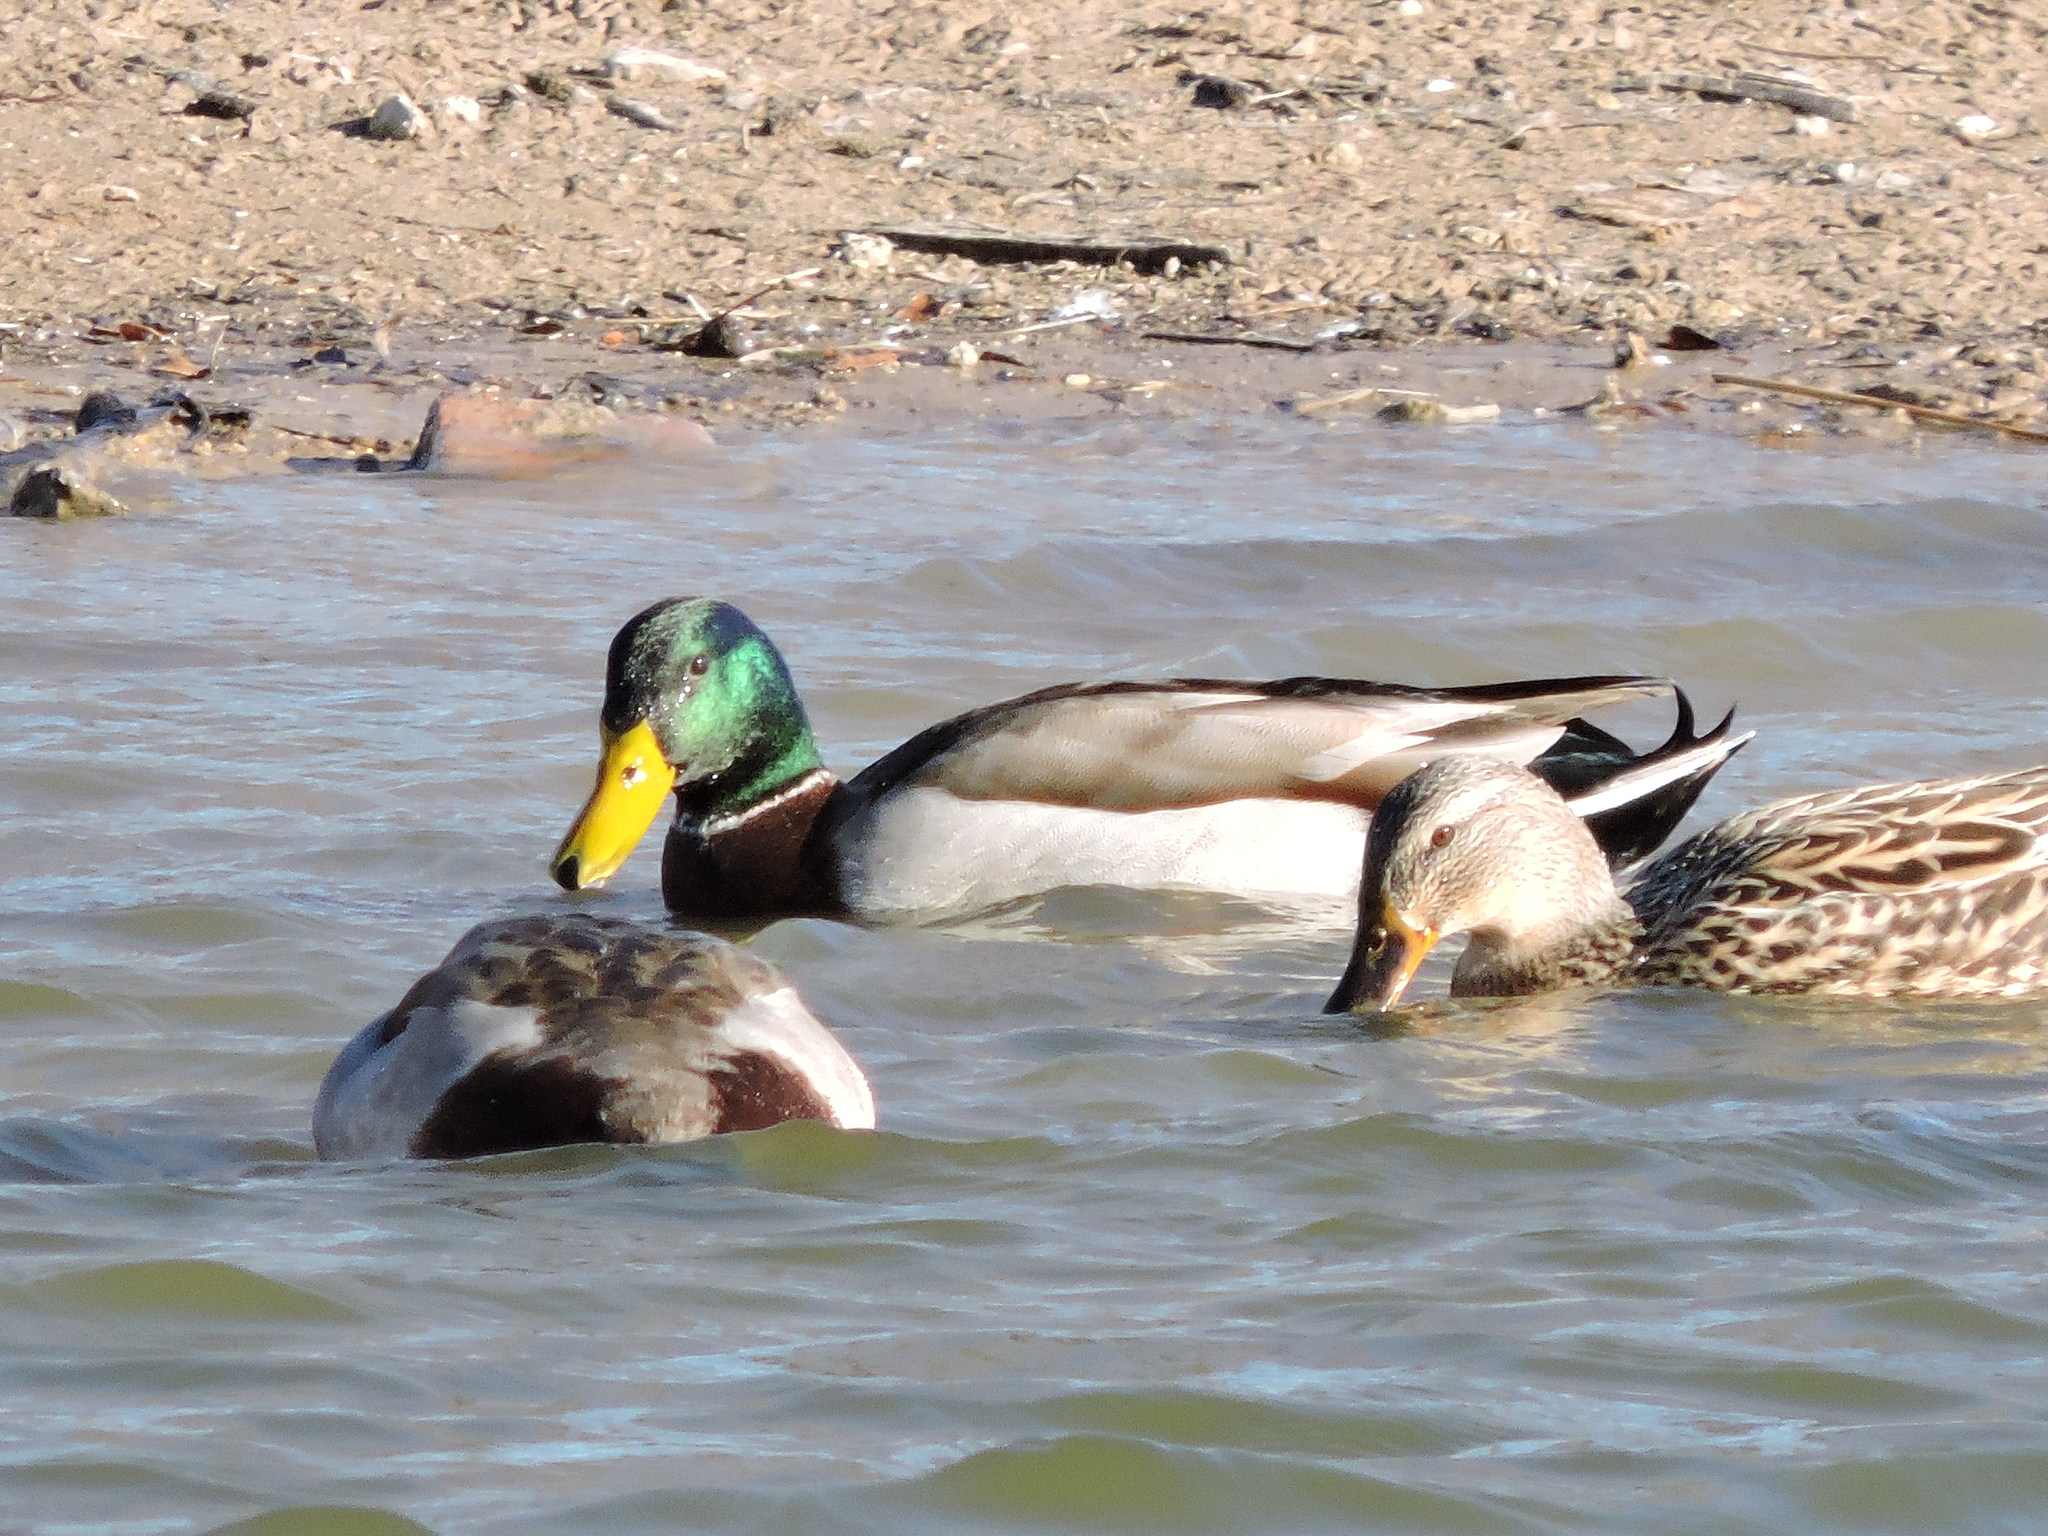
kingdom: Animalia
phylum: Chordata
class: Aves
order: Anseriformes
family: Anatidae
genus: Anas
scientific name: Anas platyrhynchos
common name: Mallard
